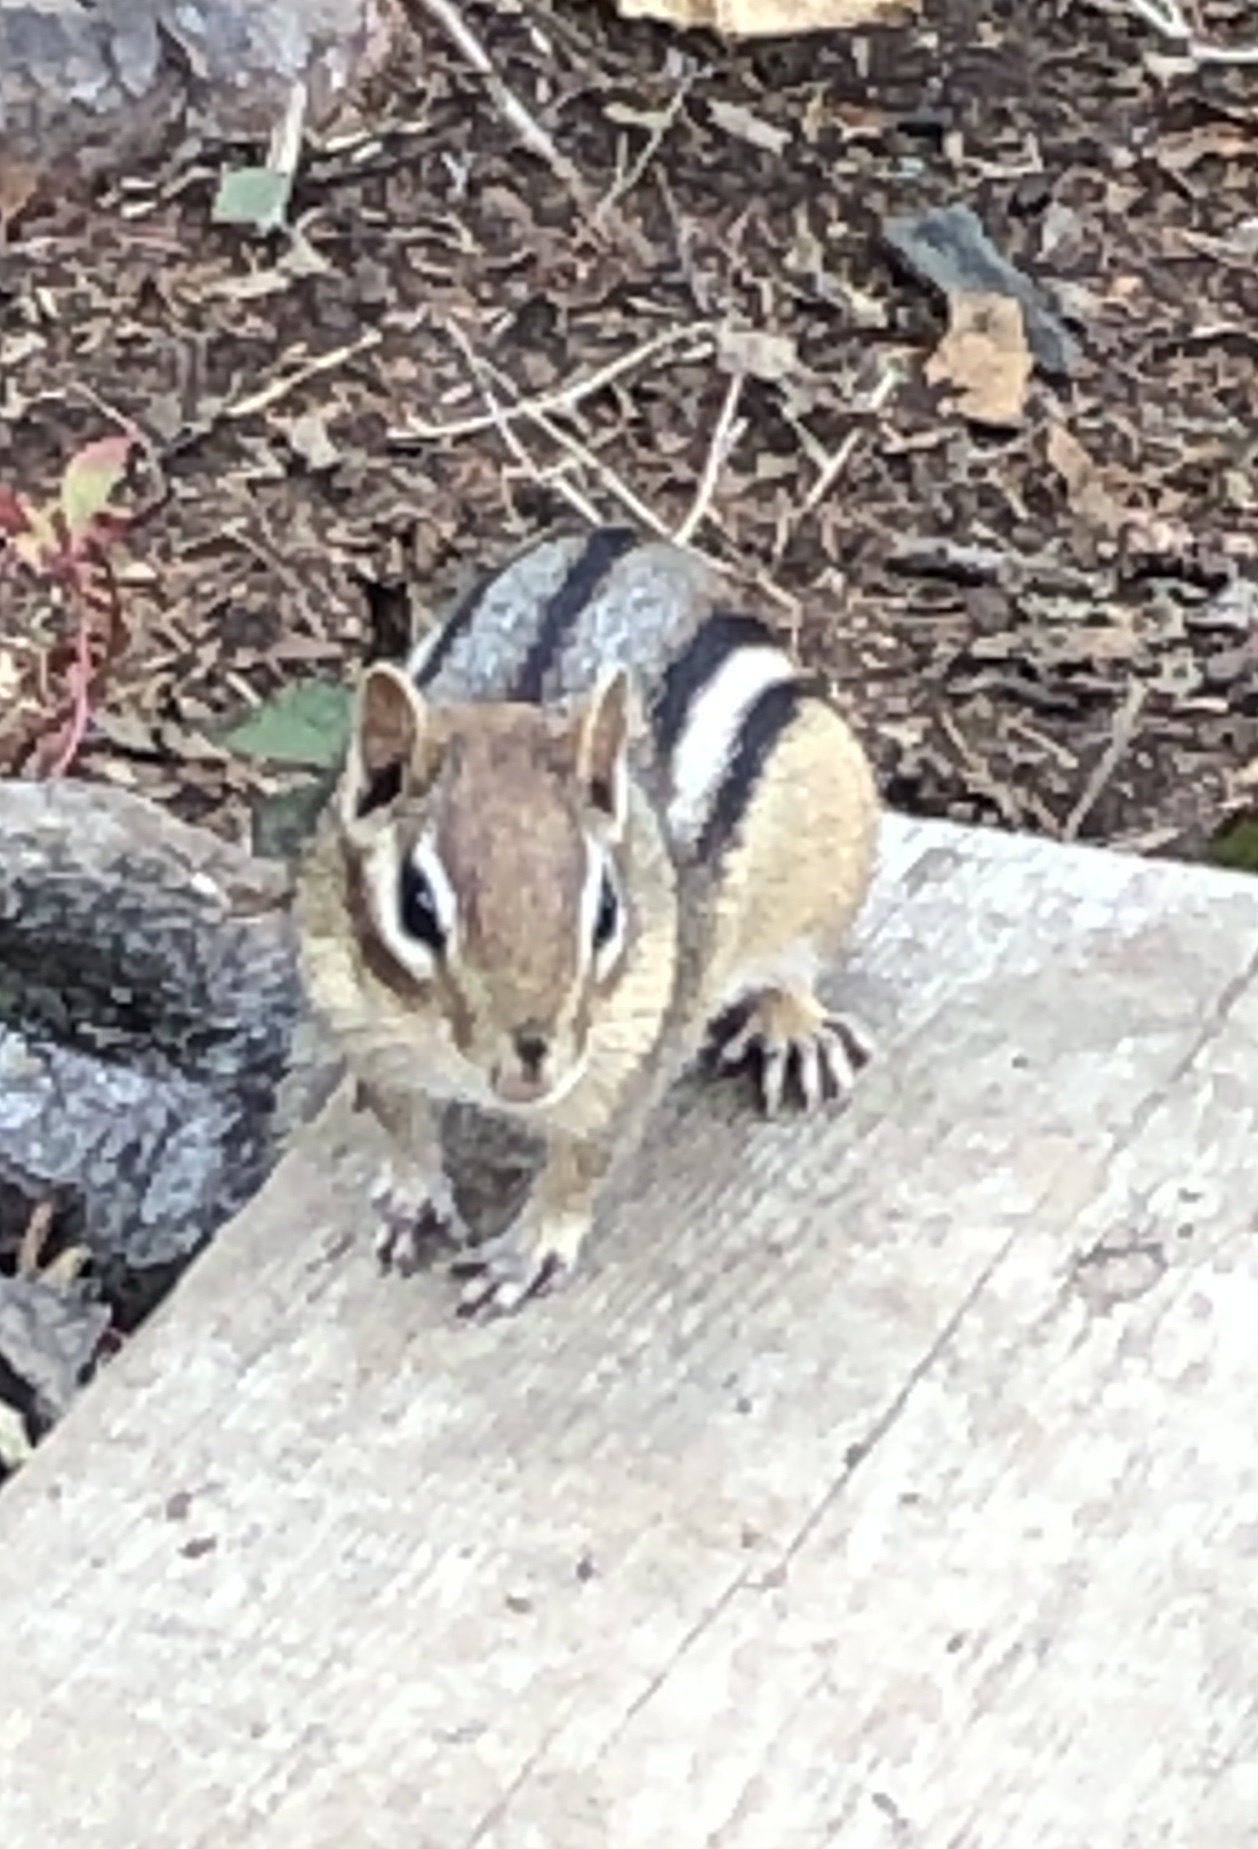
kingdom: Animalia
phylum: Chordata
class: Mammalia
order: Rodentia
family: Sciuridae
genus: Tamias
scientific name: Tamias striatus
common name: Eastern chipmunk
